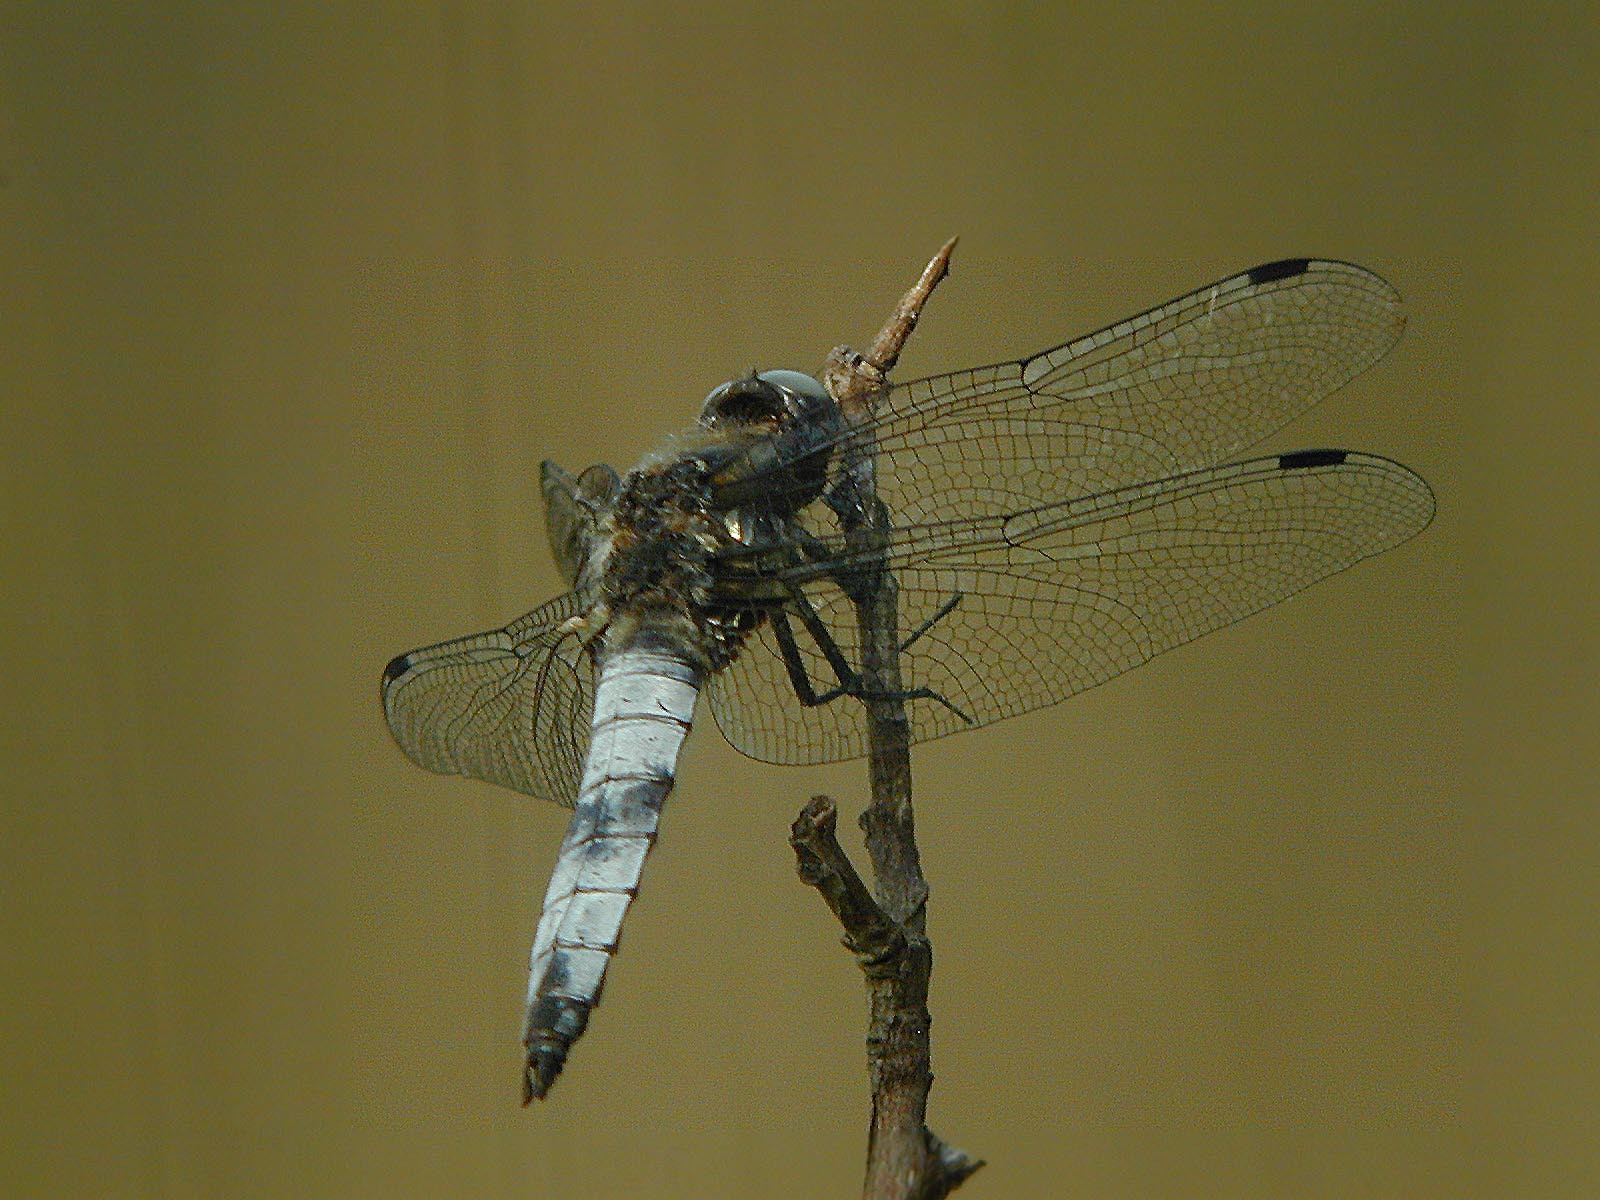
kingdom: Animalia
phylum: Arthropoda
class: Insecta
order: Odonata
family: Libellulidae
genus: Libellula
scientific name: Libellula fulva
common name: Blue chaser
